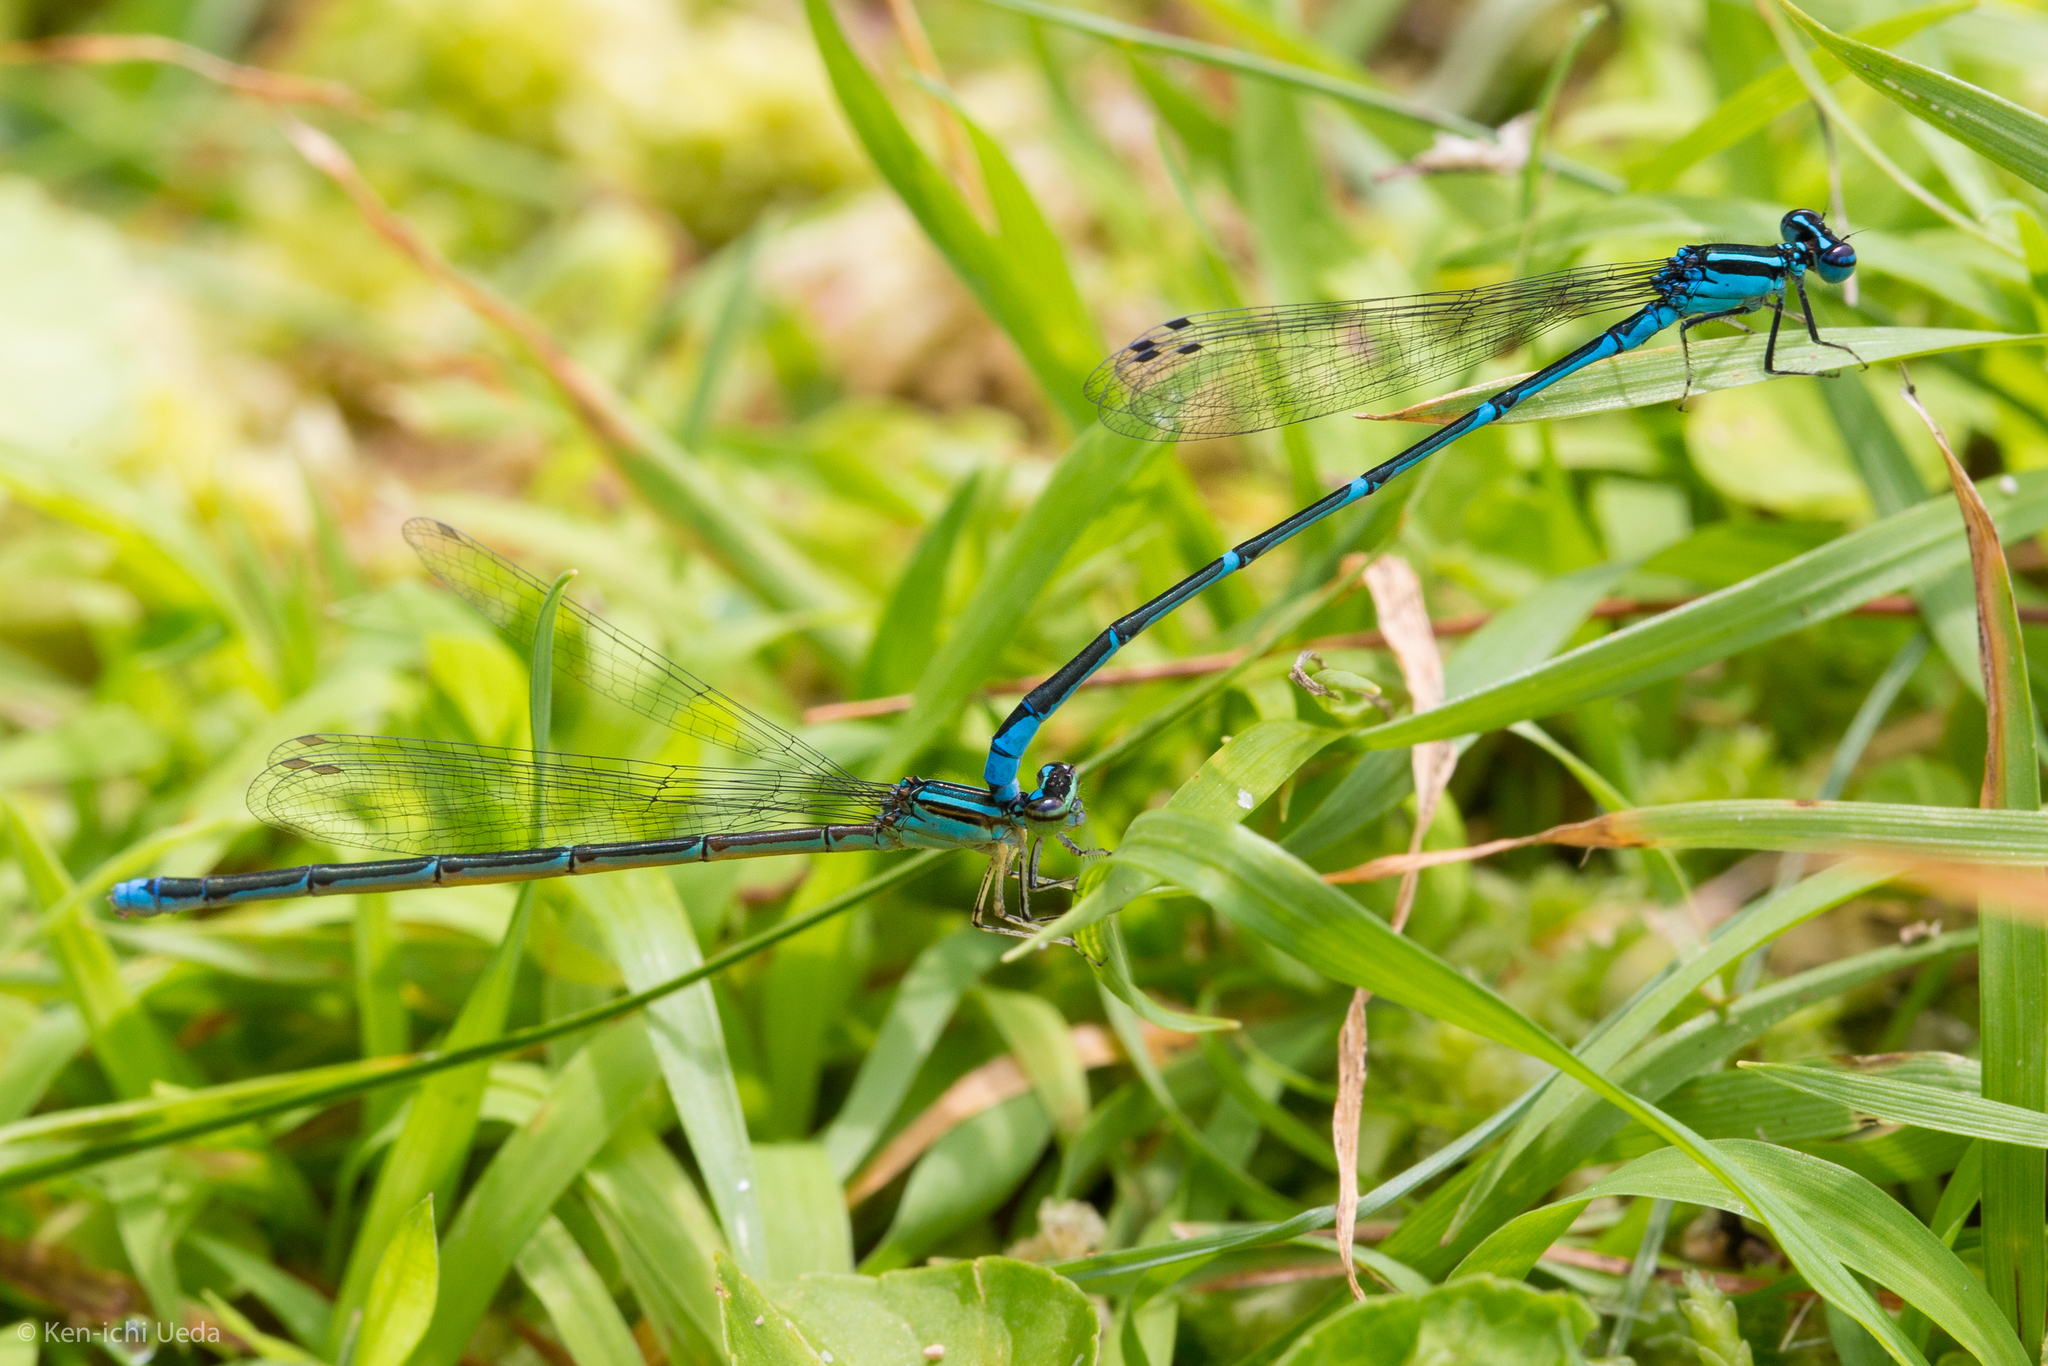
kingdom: Animalia
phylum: Arthropoda
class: Insecta
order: Odonata
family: Coenagrionidae
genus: Enallagma
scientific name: Enallagma exsulans
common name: Stream bluet
